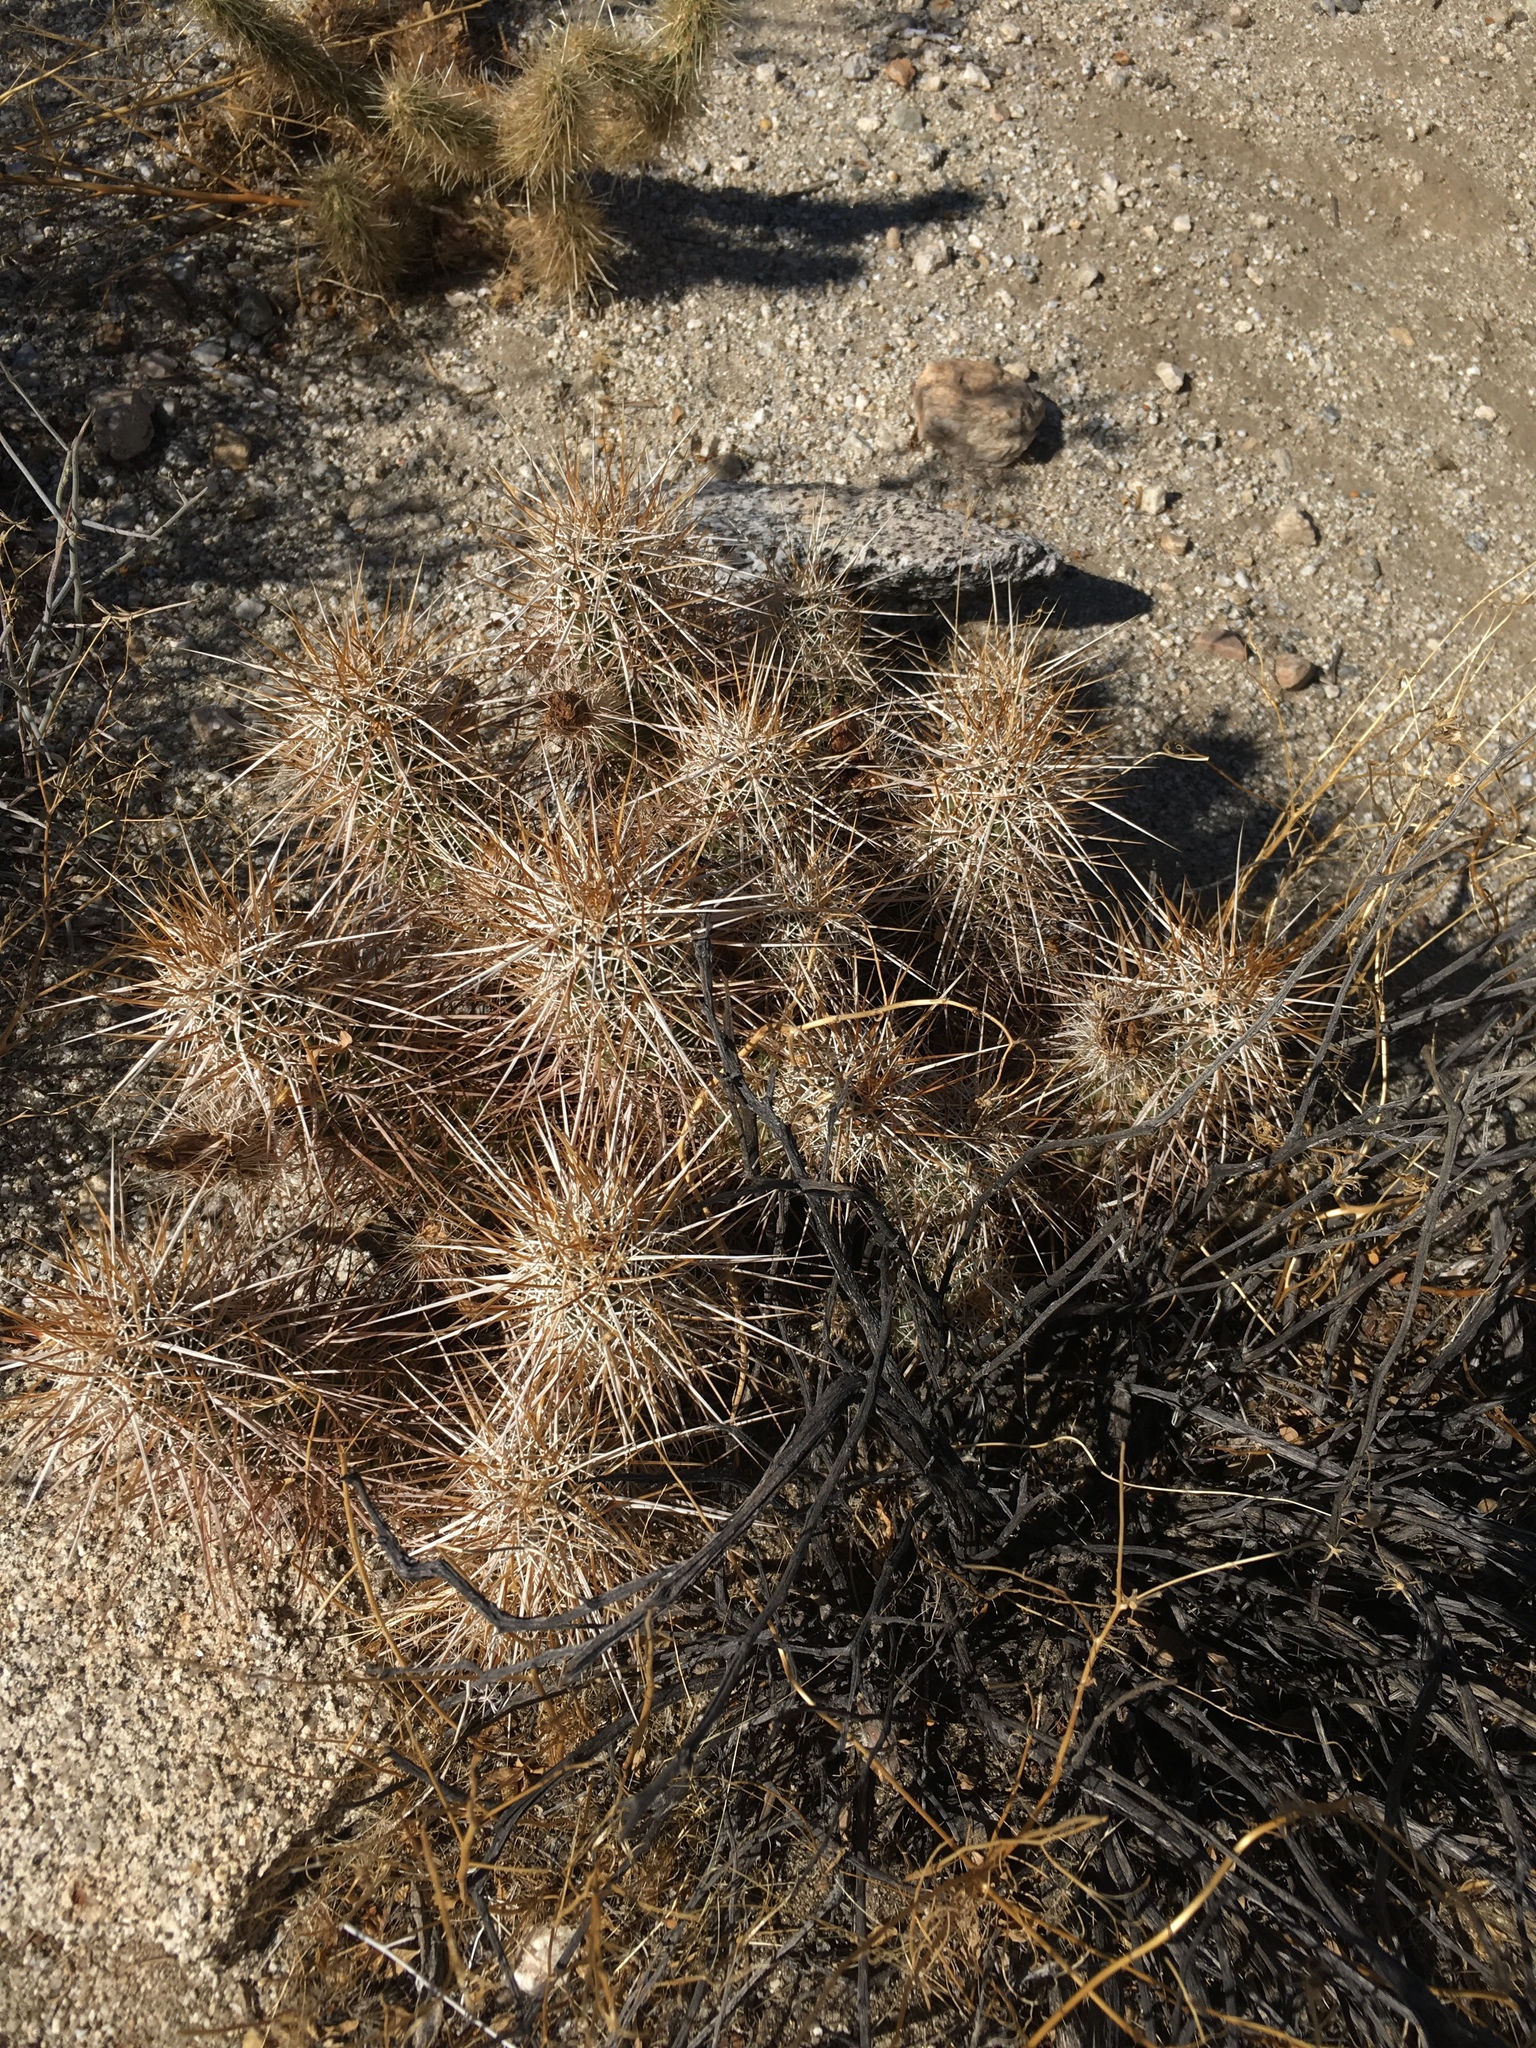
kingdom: Plantae
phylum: Tracheophyta
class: Magnoliopsida
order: Caryophyllales
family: Cactaceae
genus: Echinocereus
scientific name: Echinocereus engelmannii
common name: Engelmann's hedgehog cactus
